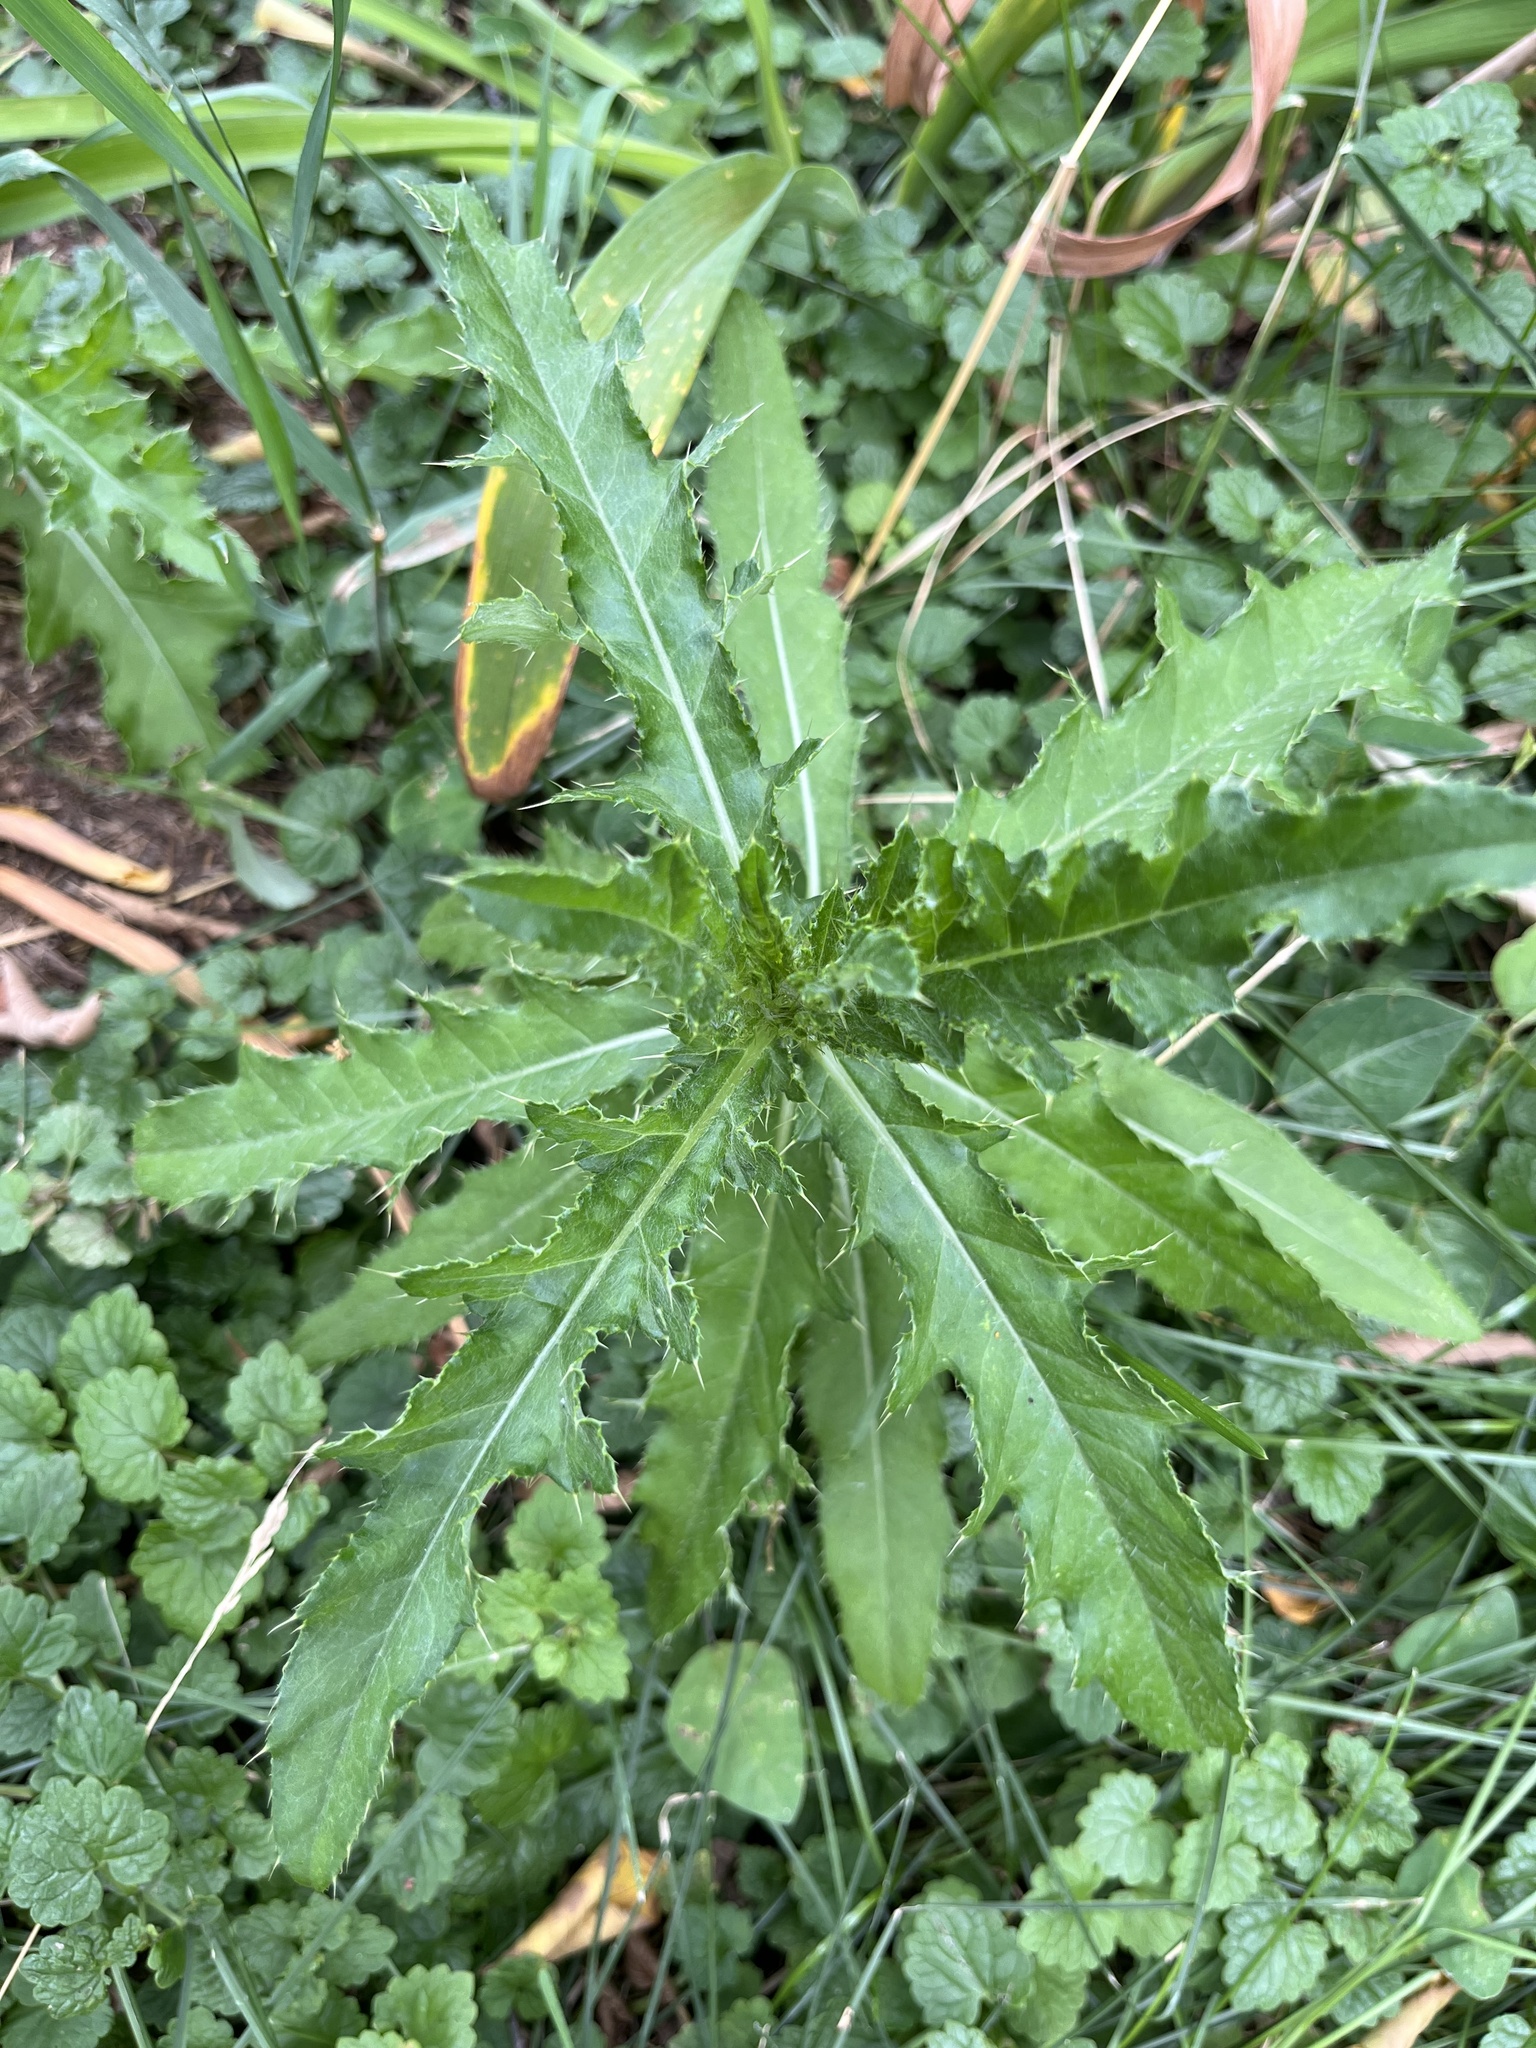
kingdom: Plantae
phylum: Tracheophyta
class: Magnoliopsida
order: Asterales
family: Asteraceae
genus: Cirsium
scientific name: Cirsium arvense
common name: Creeping thistle
